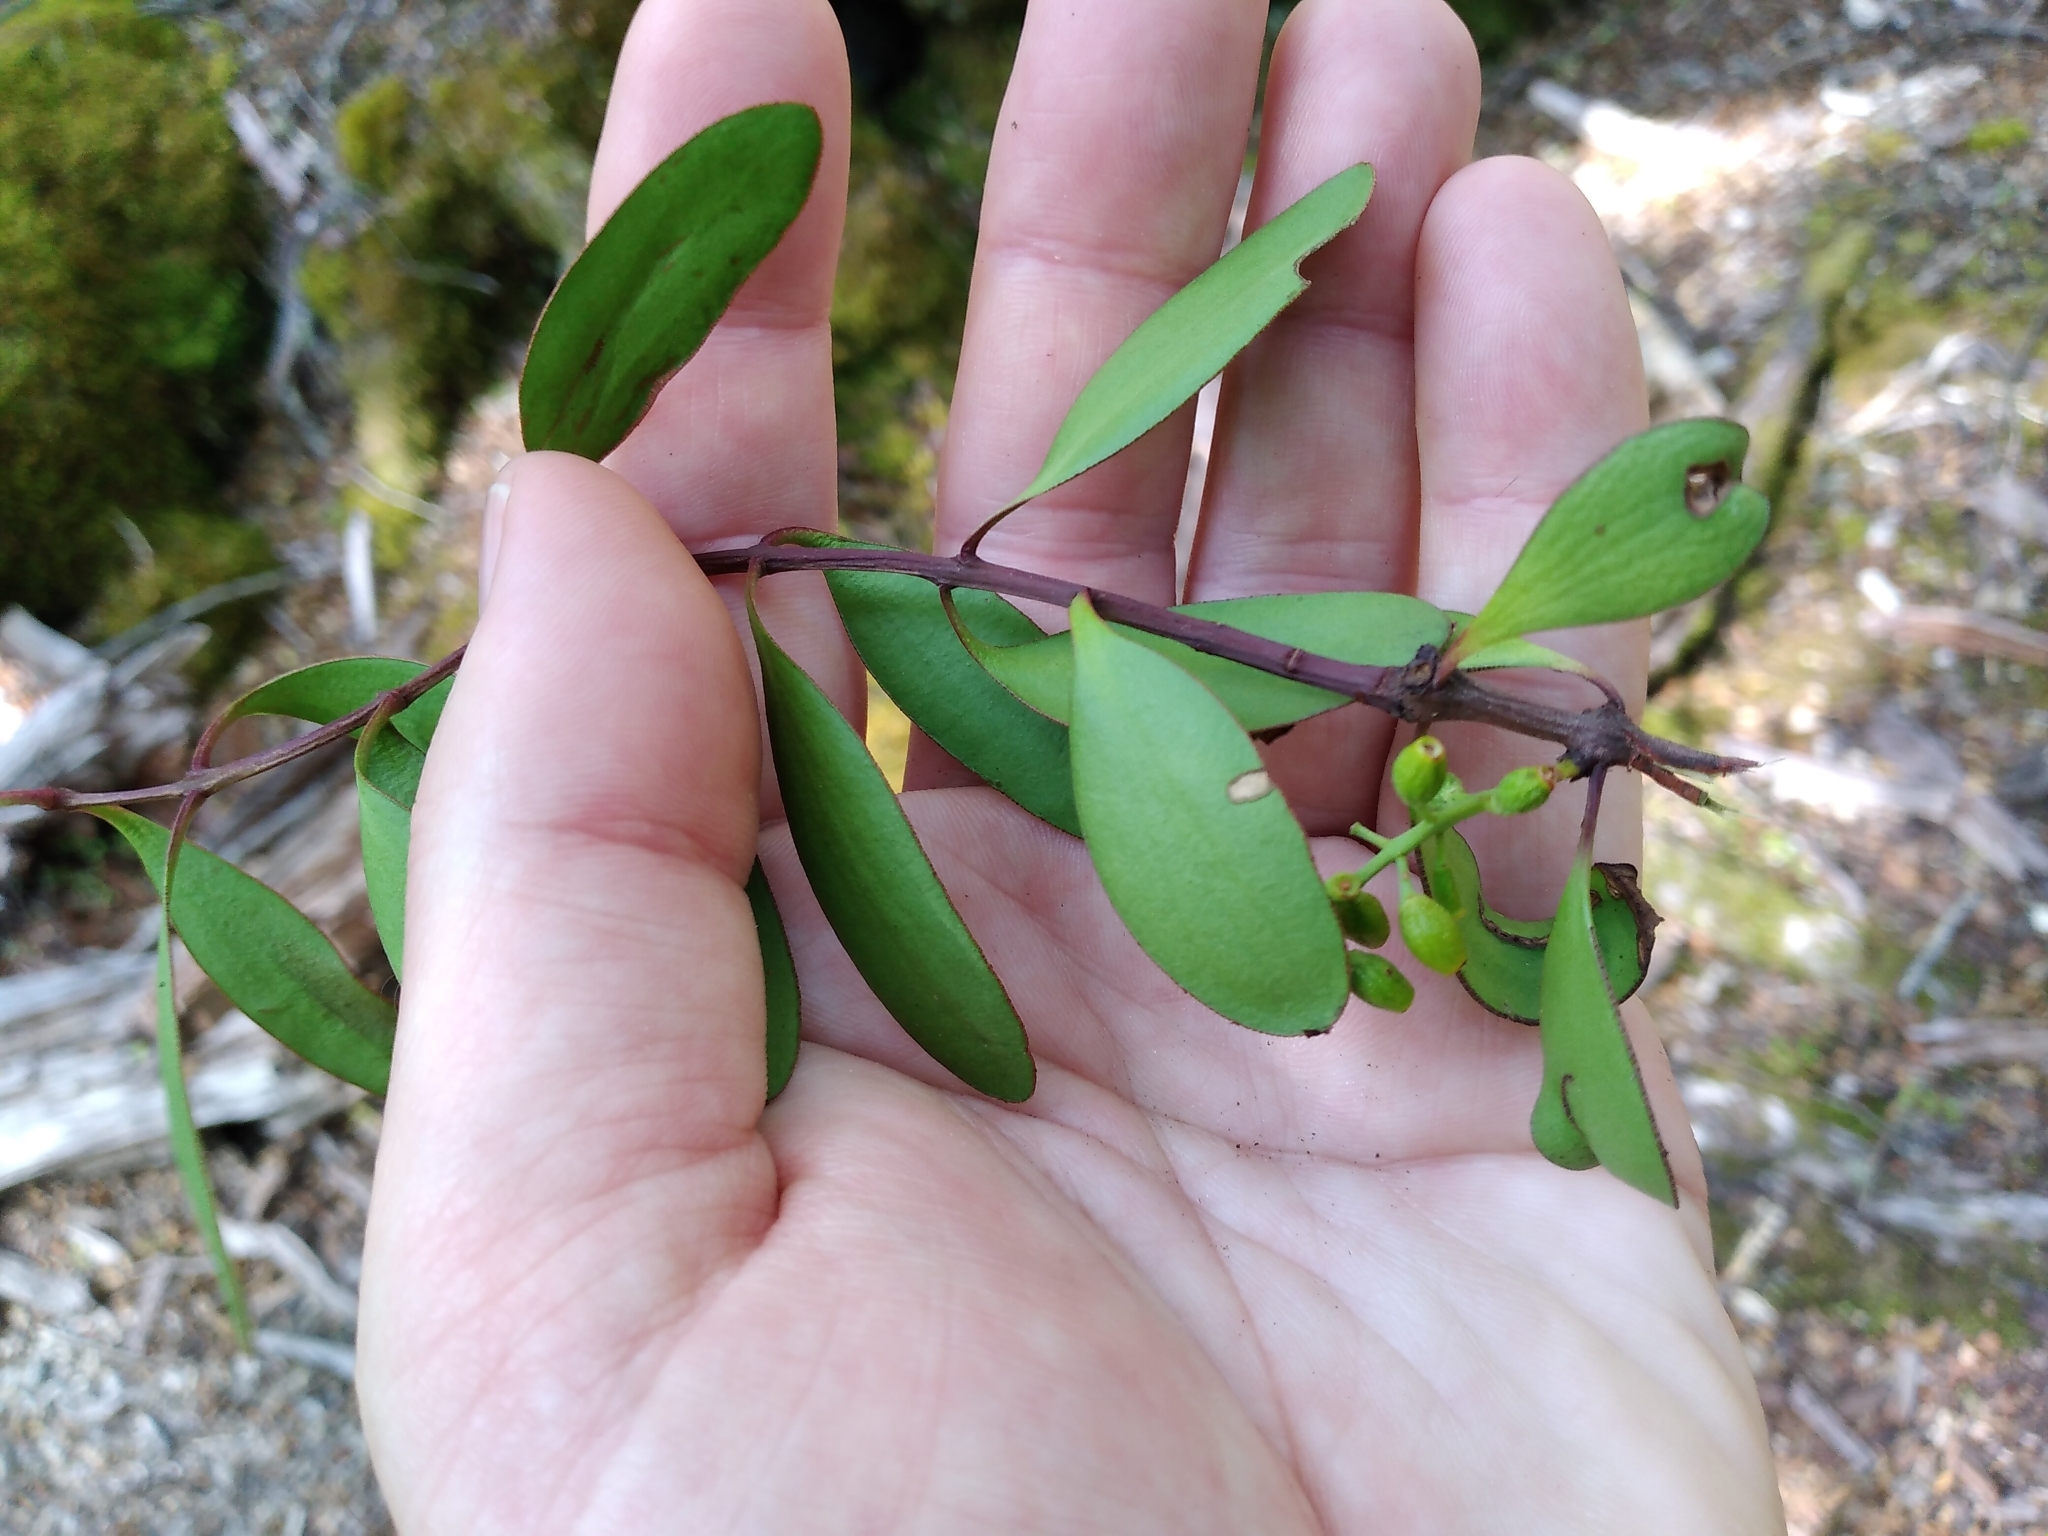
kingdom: Plantae
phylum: Tracheophyta
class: Magnoliopsida
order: Santalales
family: Loranthaceae
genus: Alepis
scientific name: Alepis flavida
